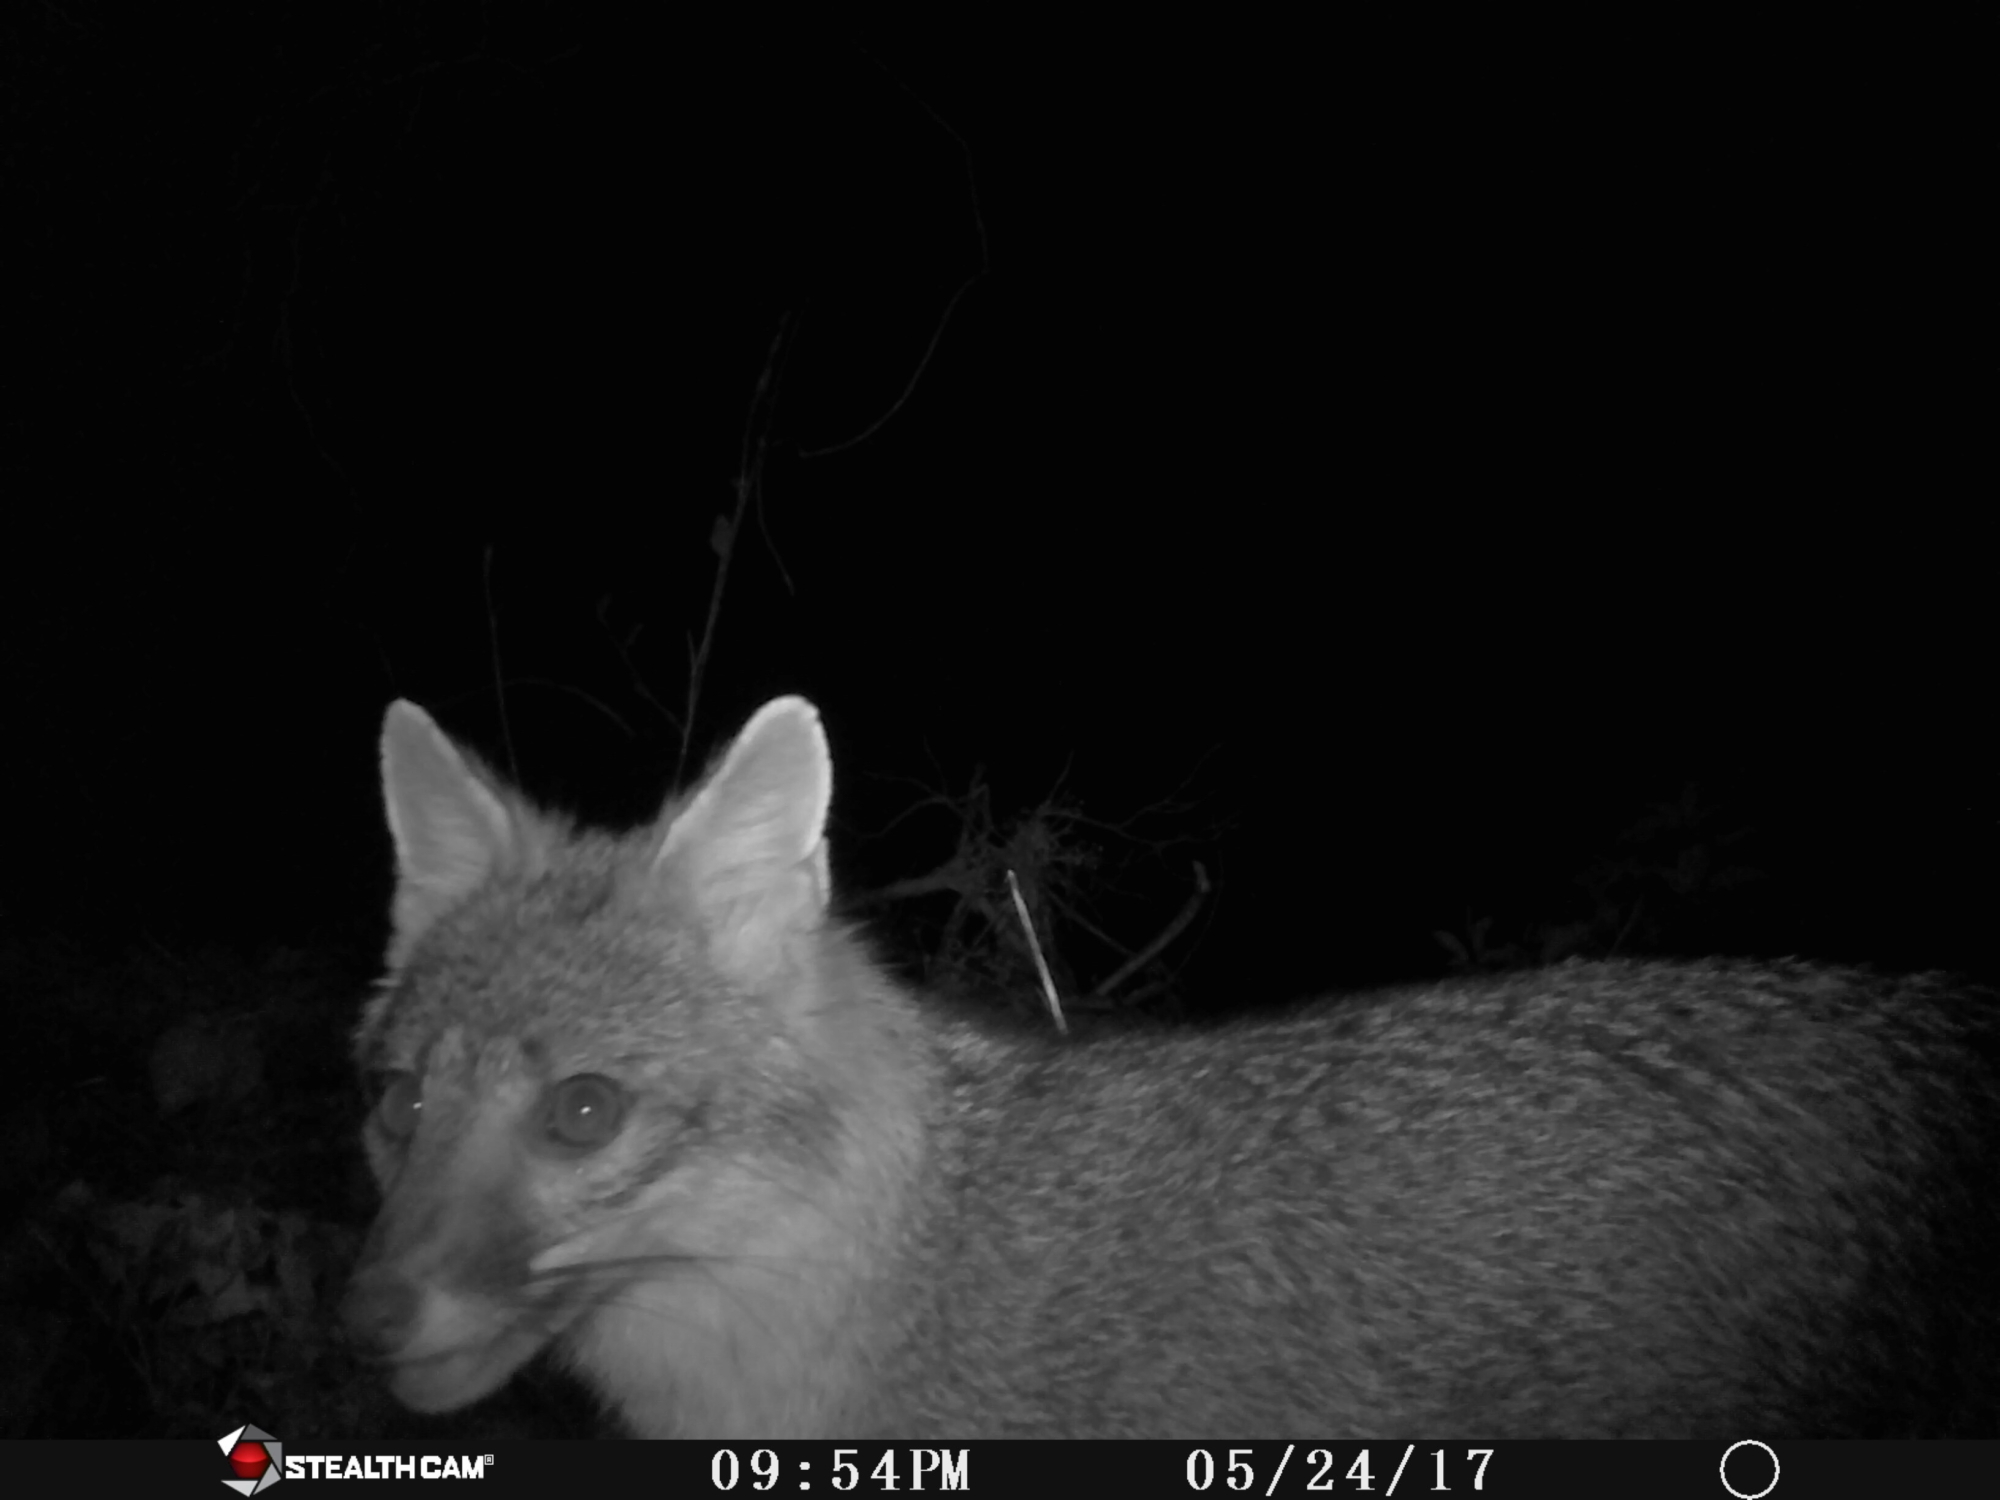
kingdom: Animalia
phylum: Chordata
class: Mammalia
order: Carnivora
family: Canidae
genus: Urocyon
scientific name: Urocyon cinereoargenteus
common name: Gray fox
